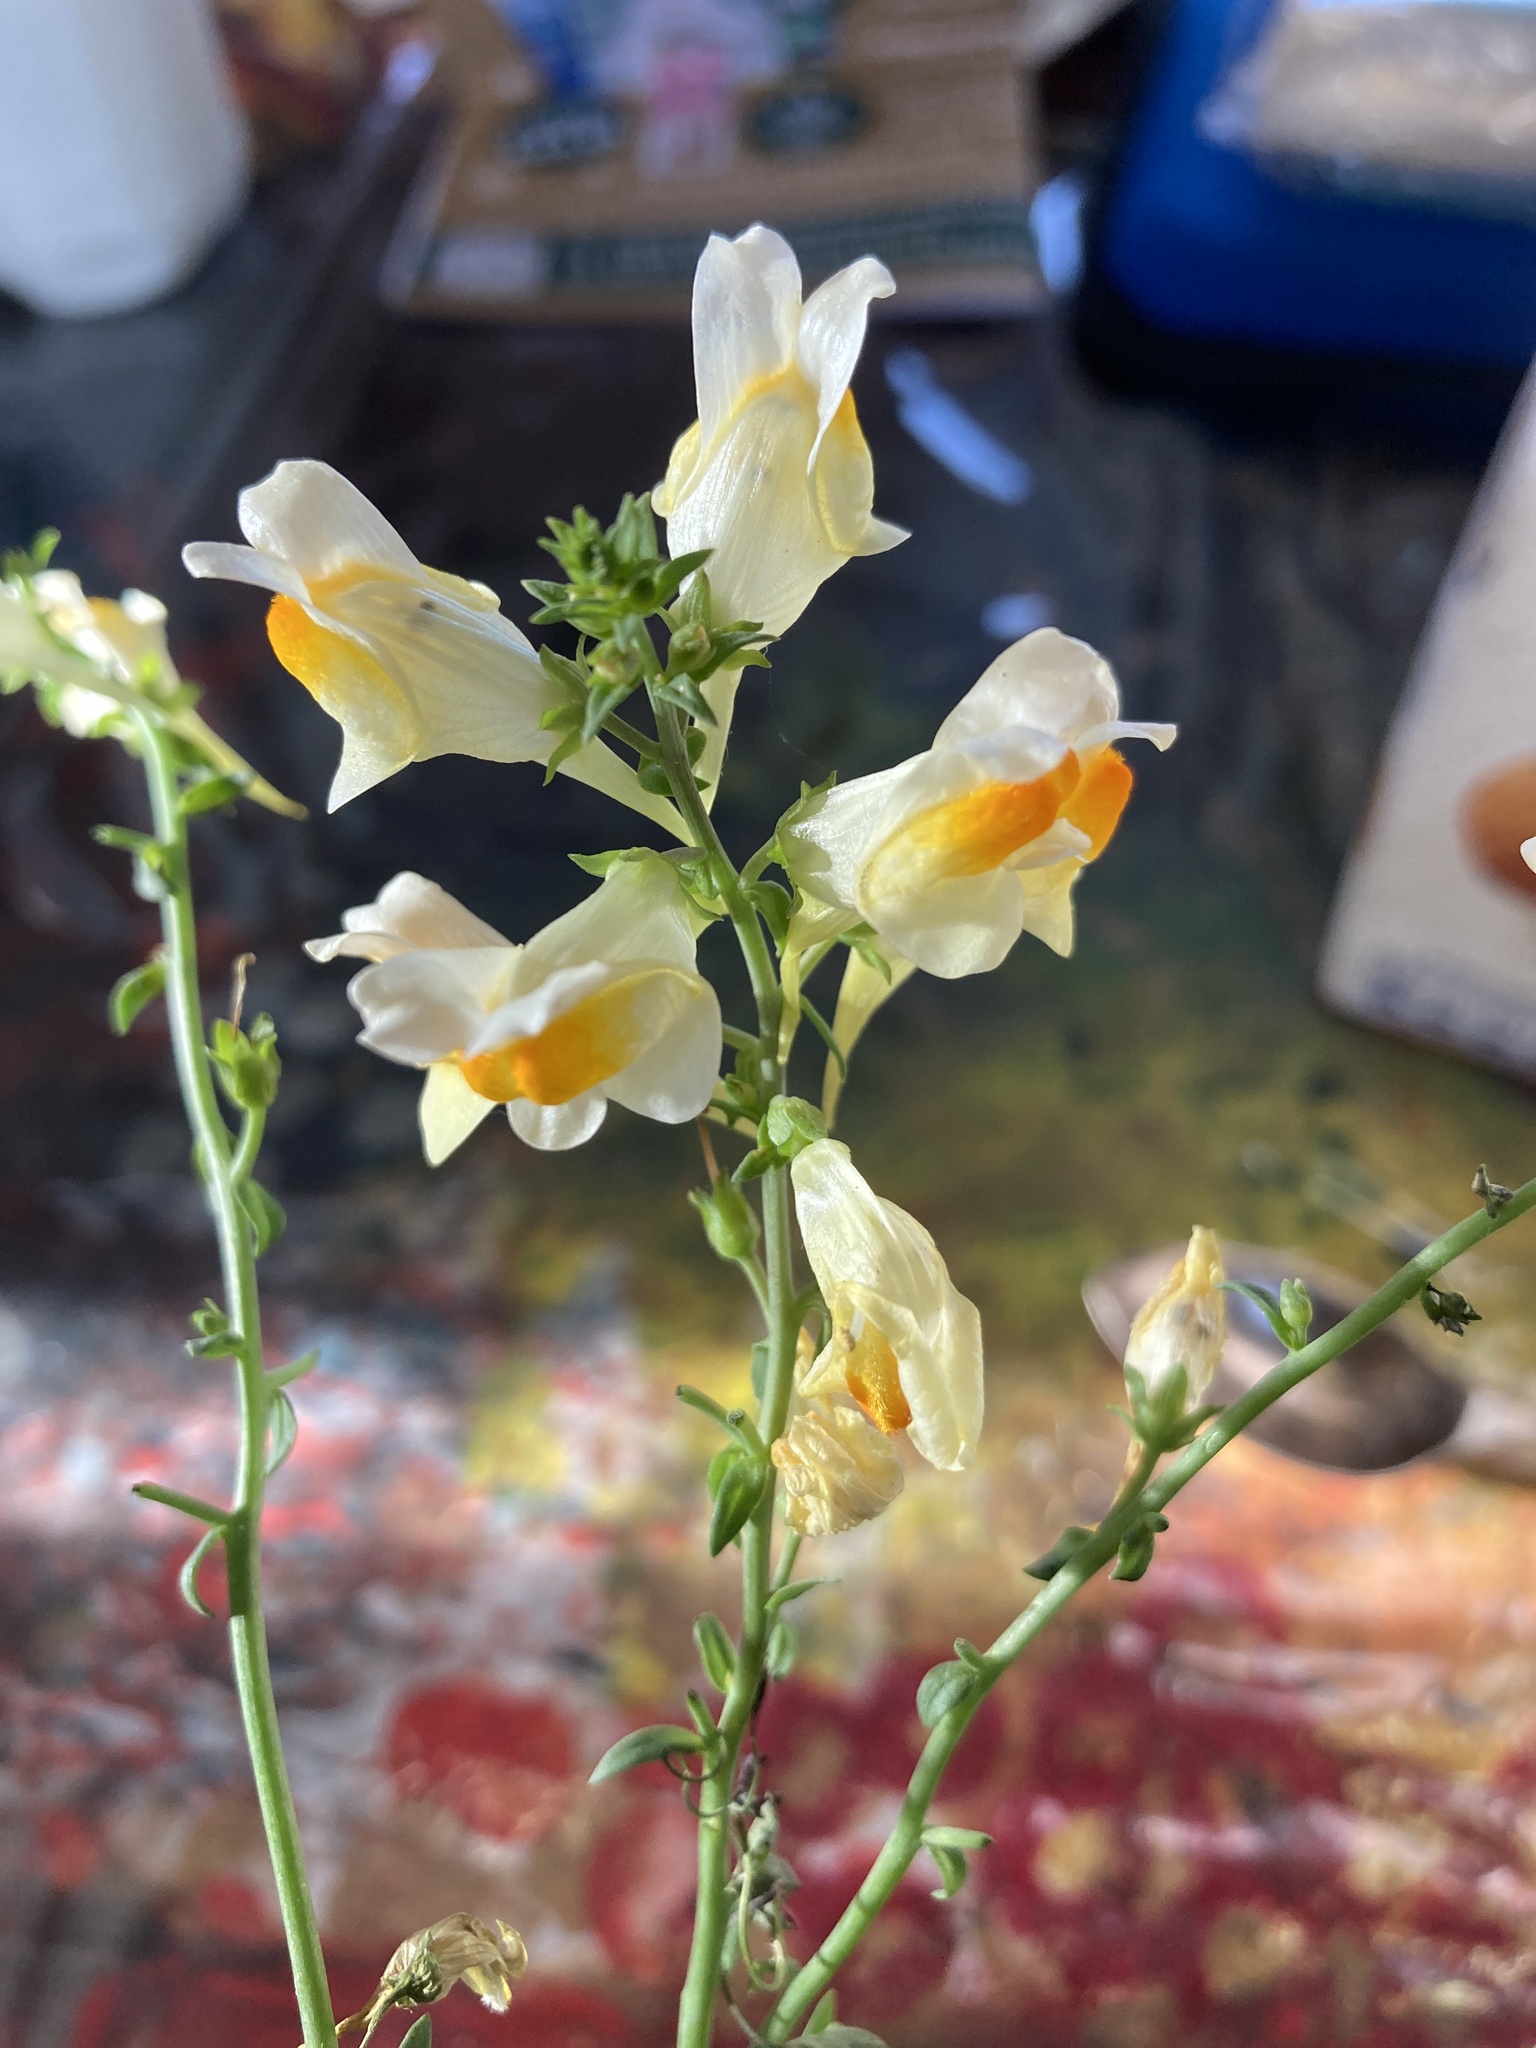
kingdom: Plantae
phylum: Tracheophyta
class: Magnoliopsida
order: Lamiales
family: Plantaginaceae
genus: Linaria
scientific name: Linaria vulgaris
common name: Butter and eggs
